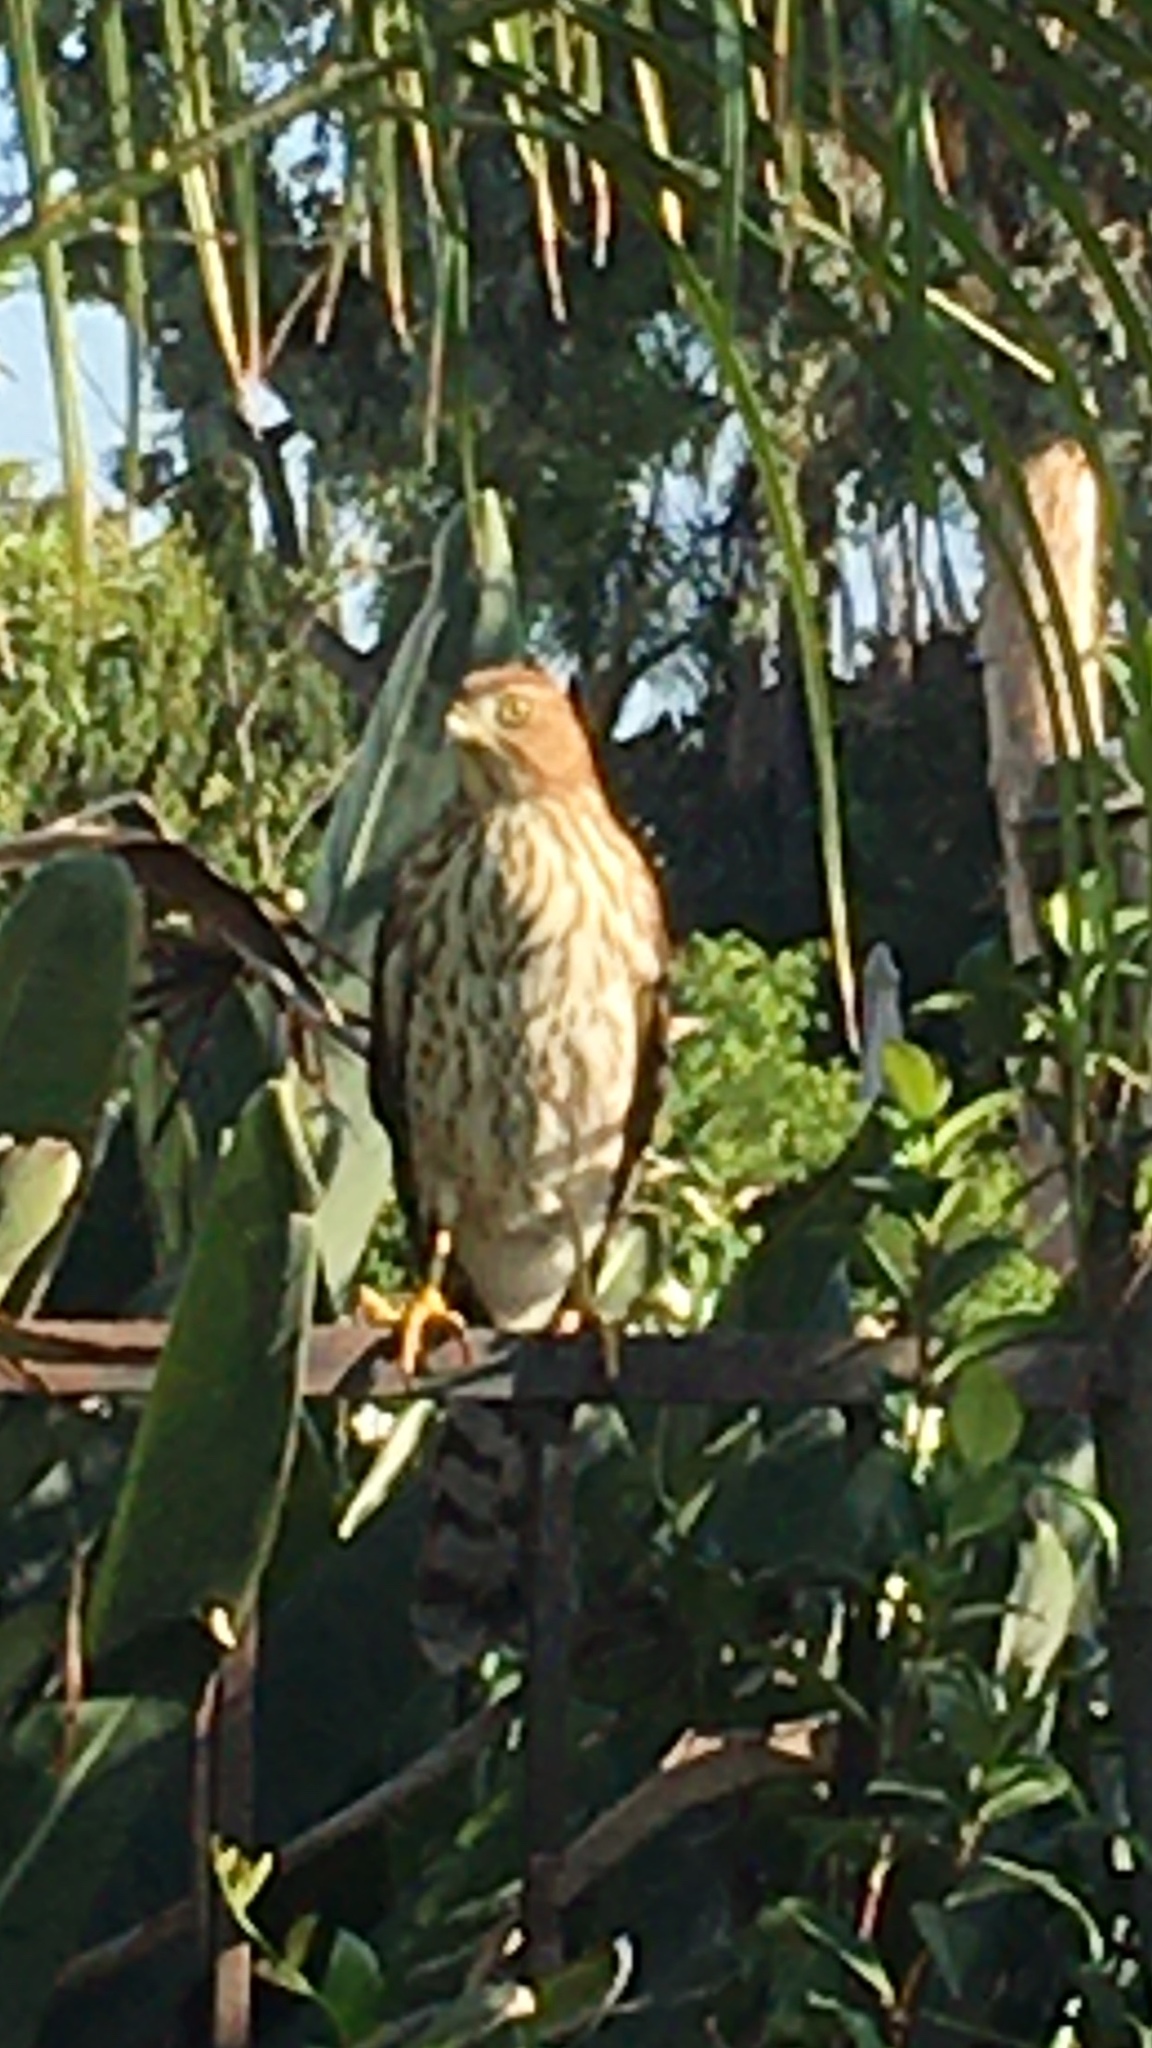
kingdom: Animalia
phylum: Chordata
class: Aves
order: Accipitriformes
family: Accipitridae
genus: Accipiter
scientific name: Accipiter cooperii
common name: Cooper's hawk
